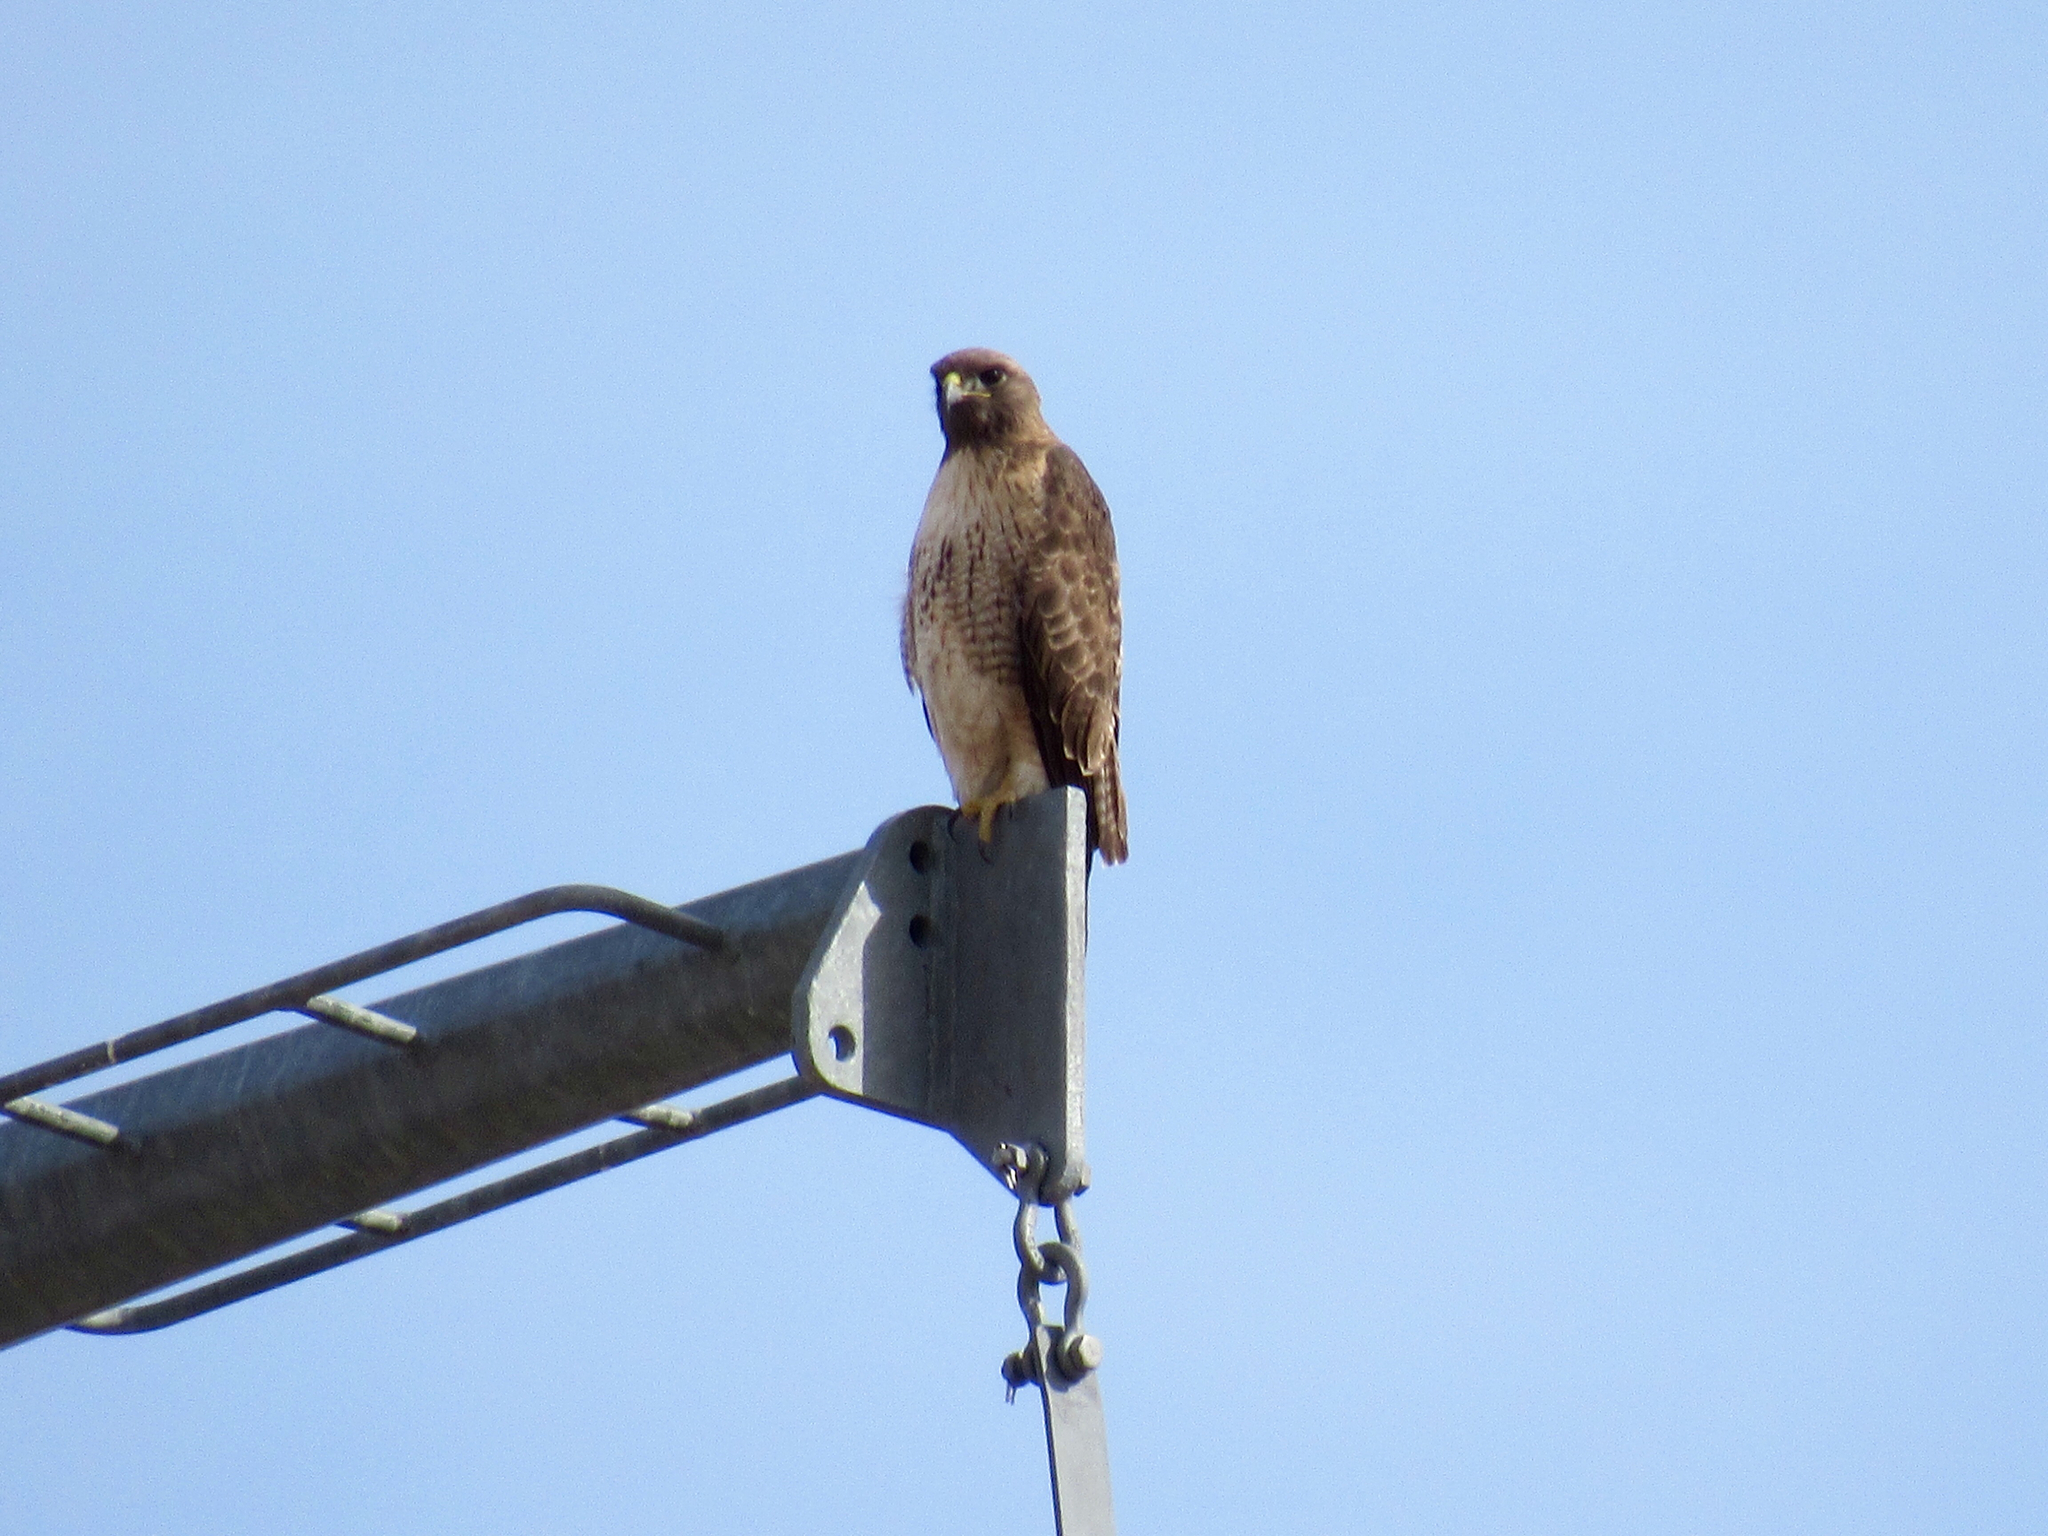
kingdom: Animalia
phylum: Chordata
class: Aves
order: Accipitriformes
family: Accipitridae
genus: Buteo
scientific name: Buteo jamaicensis
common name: Red-tailed hawk
